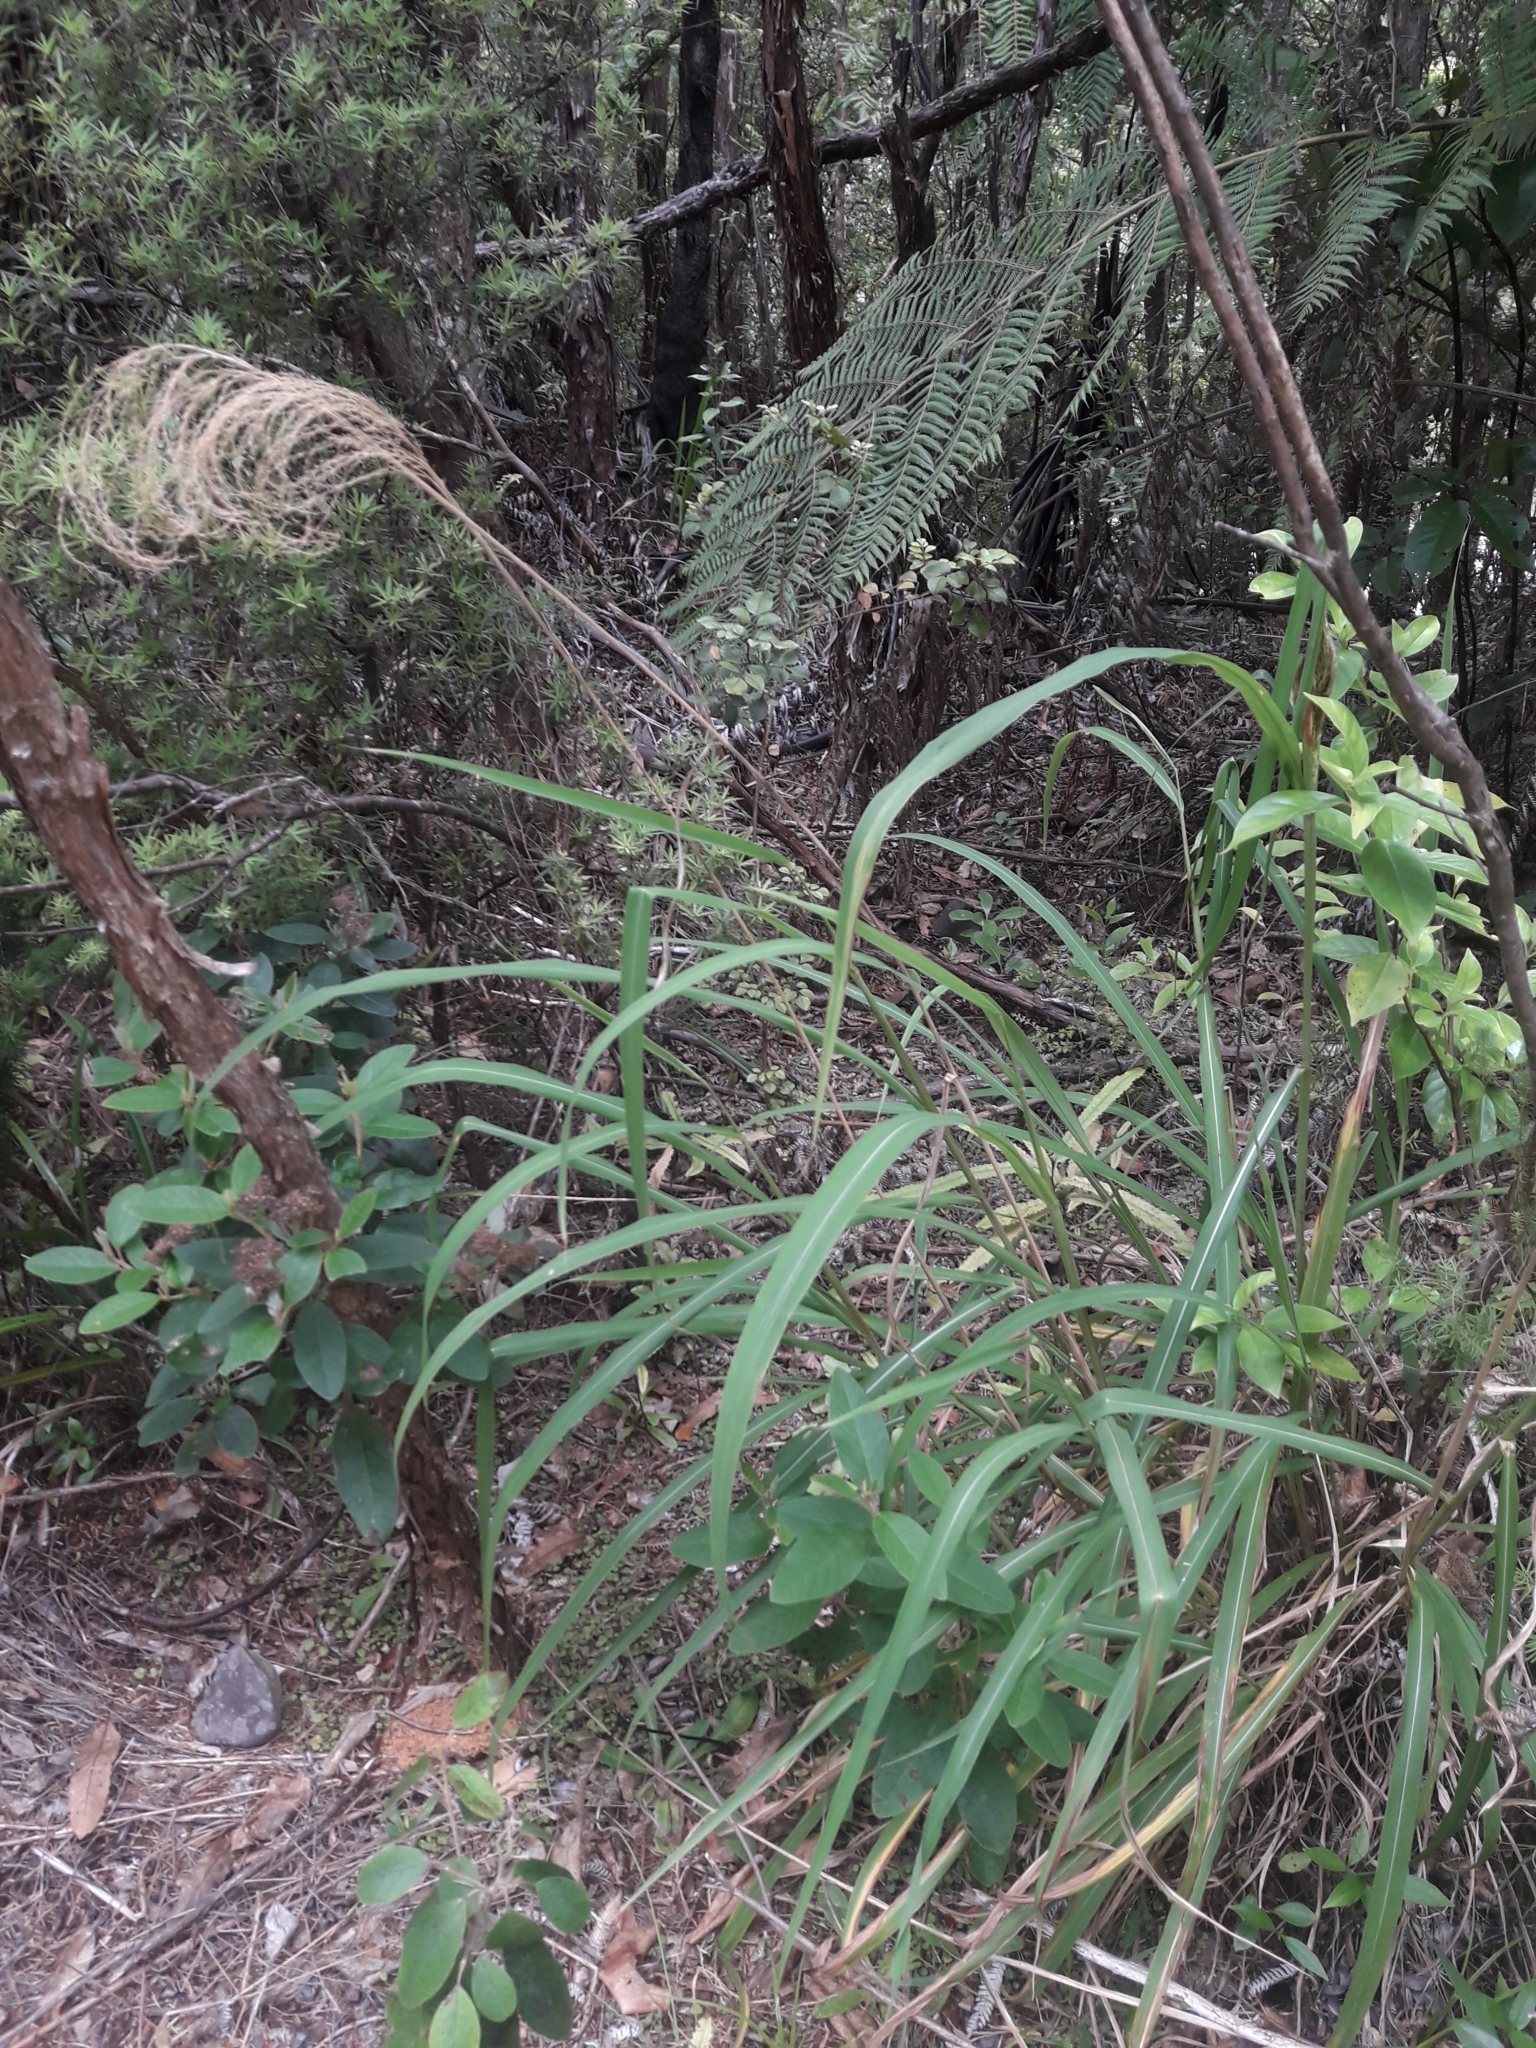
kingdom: Plantae
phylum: Tracheophyta
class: Liliopsida
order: Poales
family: Poaceae
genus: Miscanthus
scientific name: Miscanthus nepalensis
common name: Nepal silver grass
